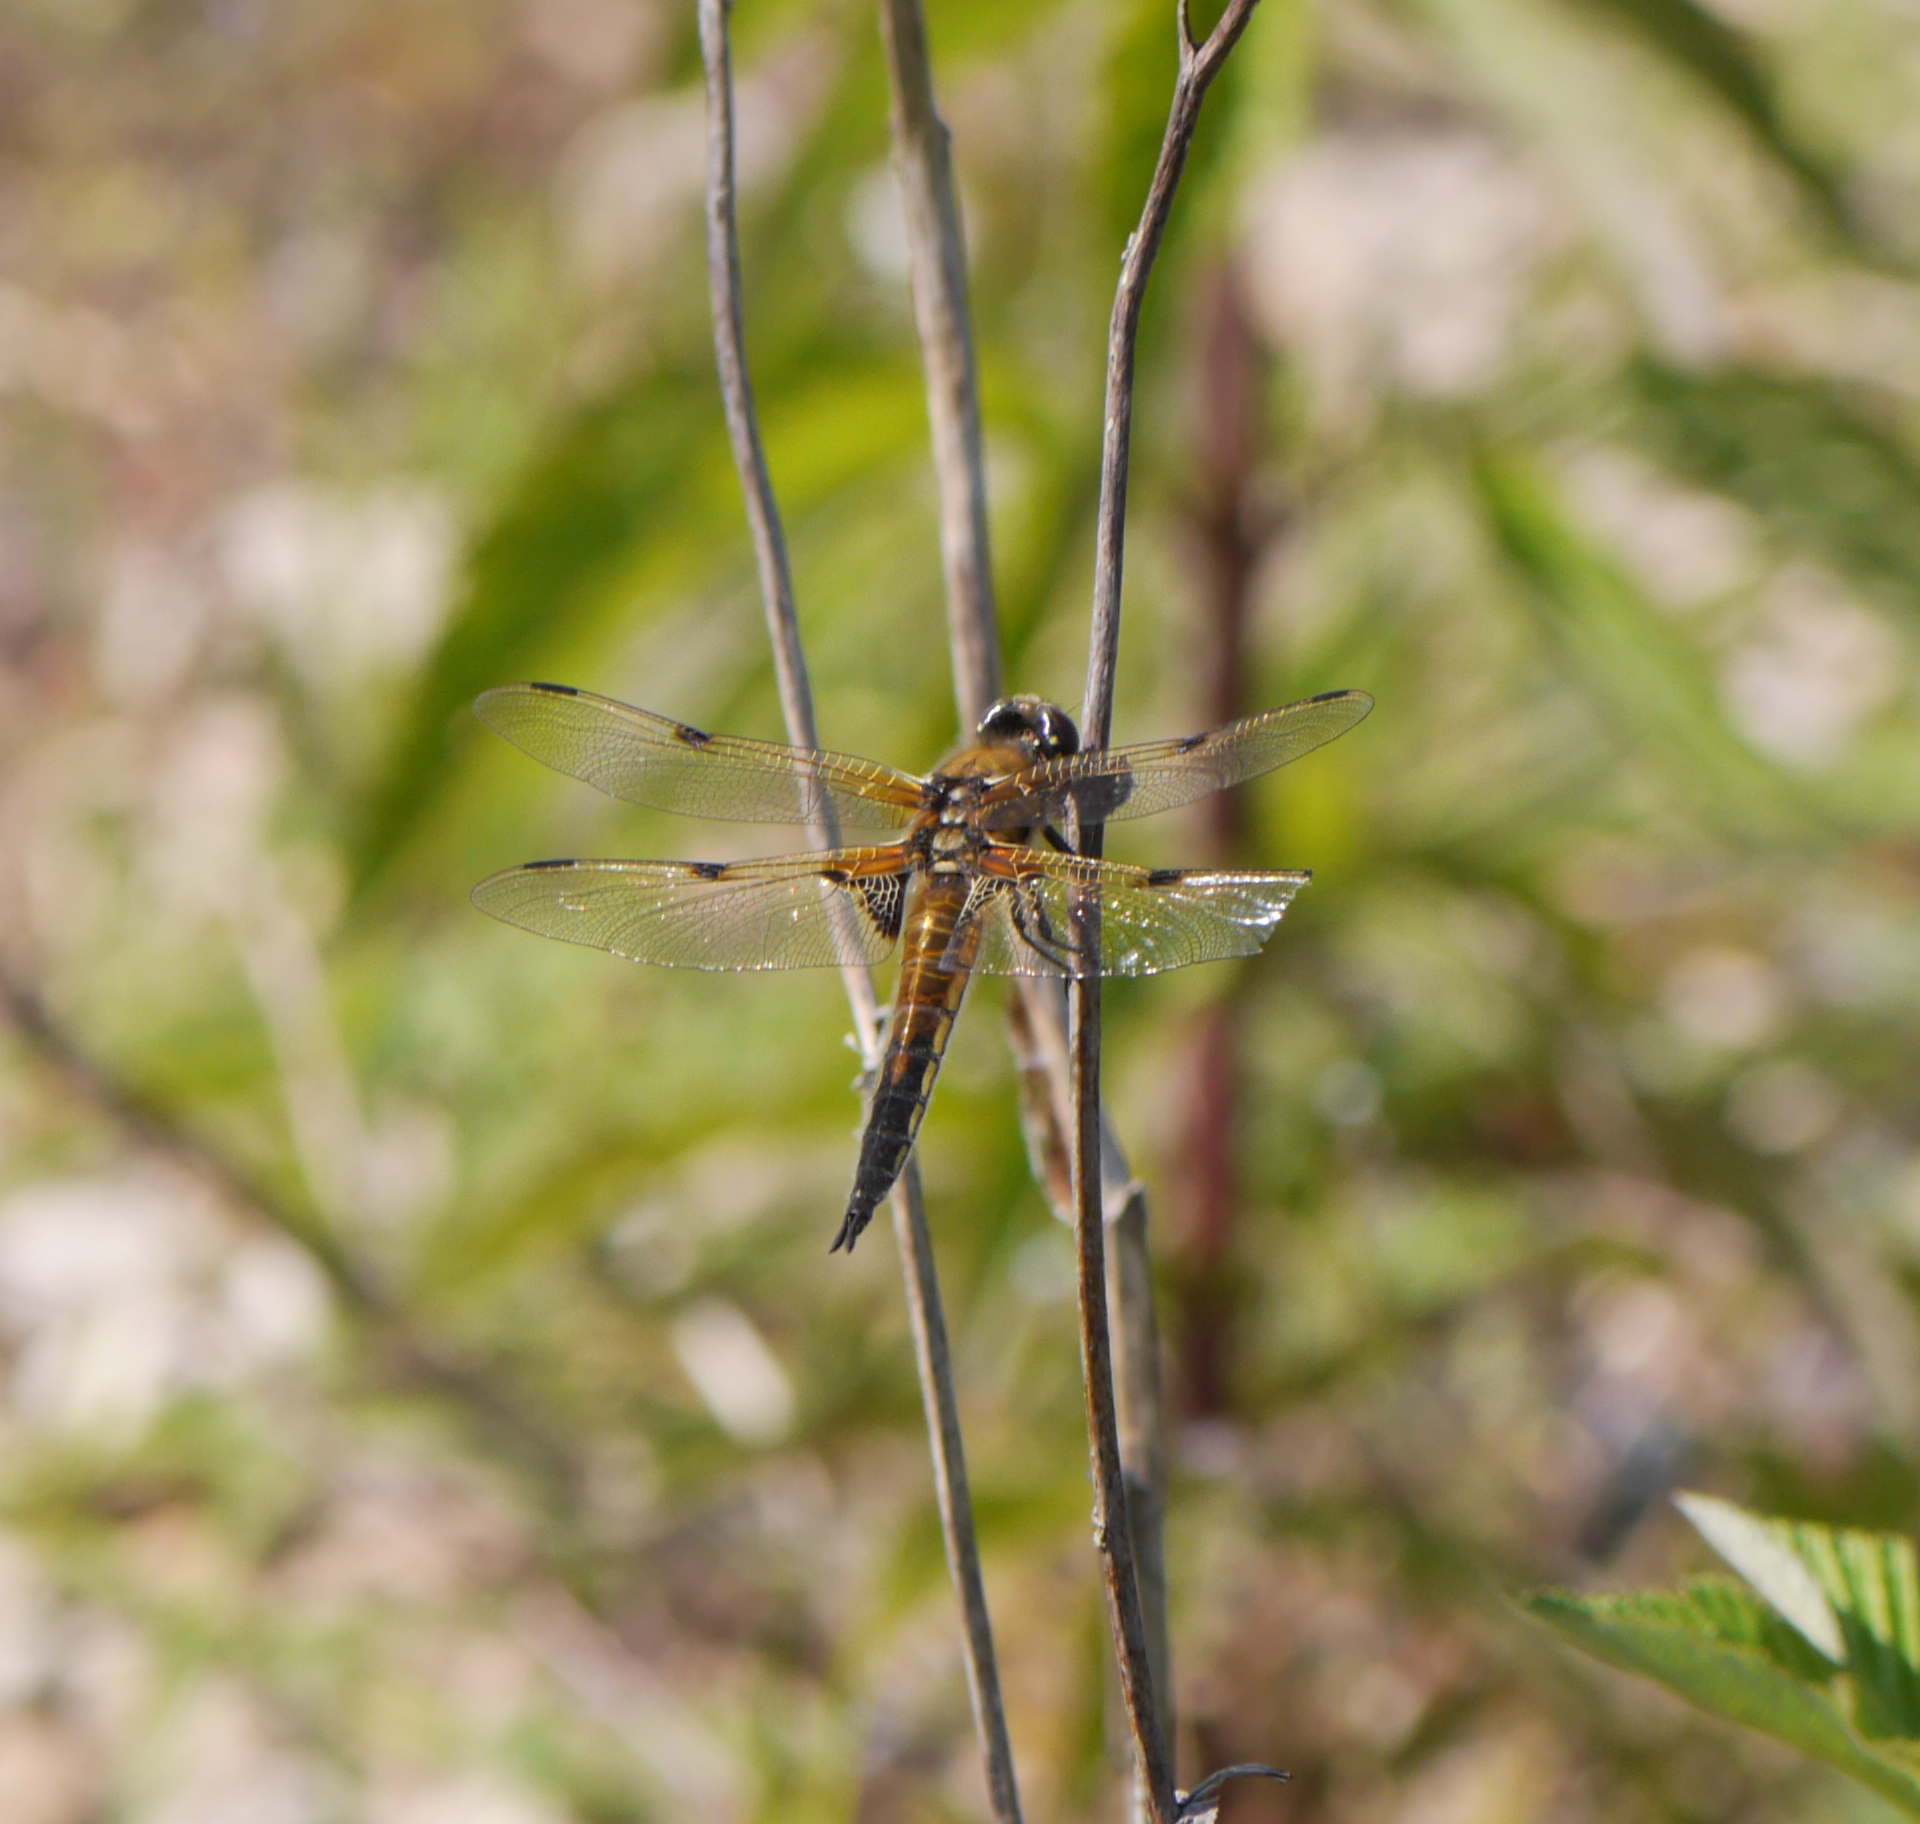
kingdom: Animalia
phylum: Arthropoda
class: Insecta
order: Odonata
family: Libellulidae
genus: Libellula
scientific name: Libellula quadrimaculata
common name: Four-spotted chaser
